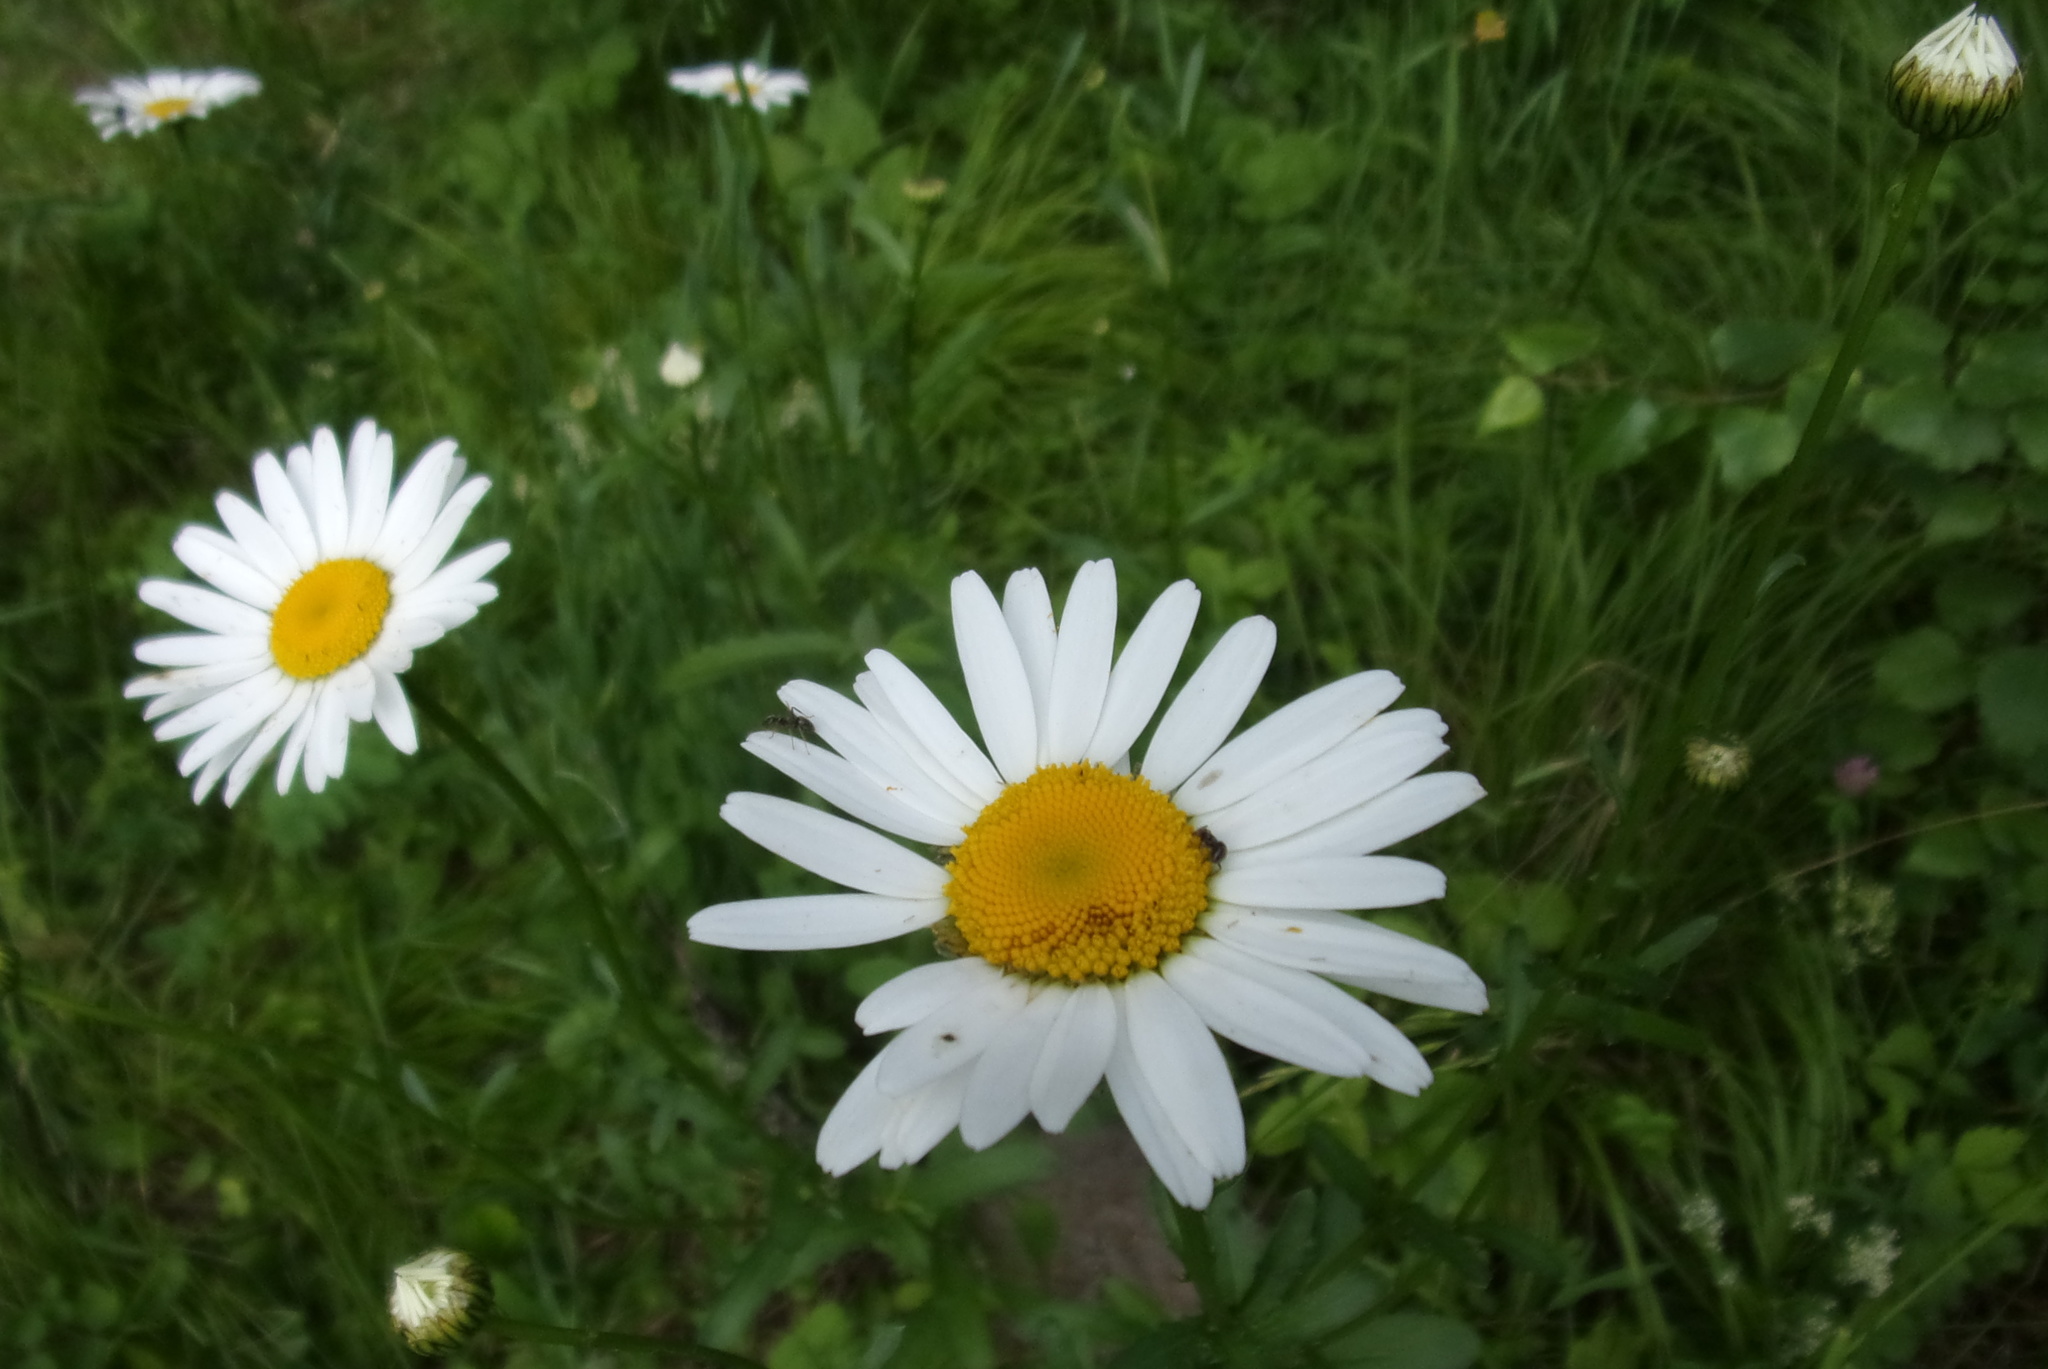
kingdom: Plantae
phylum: Tracheophyta
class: Magnoliopsida
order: Asterales
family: Asteraceae
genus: Leucanthemum
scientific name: Leucanthemum vulgare
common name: Oxeye daisy
